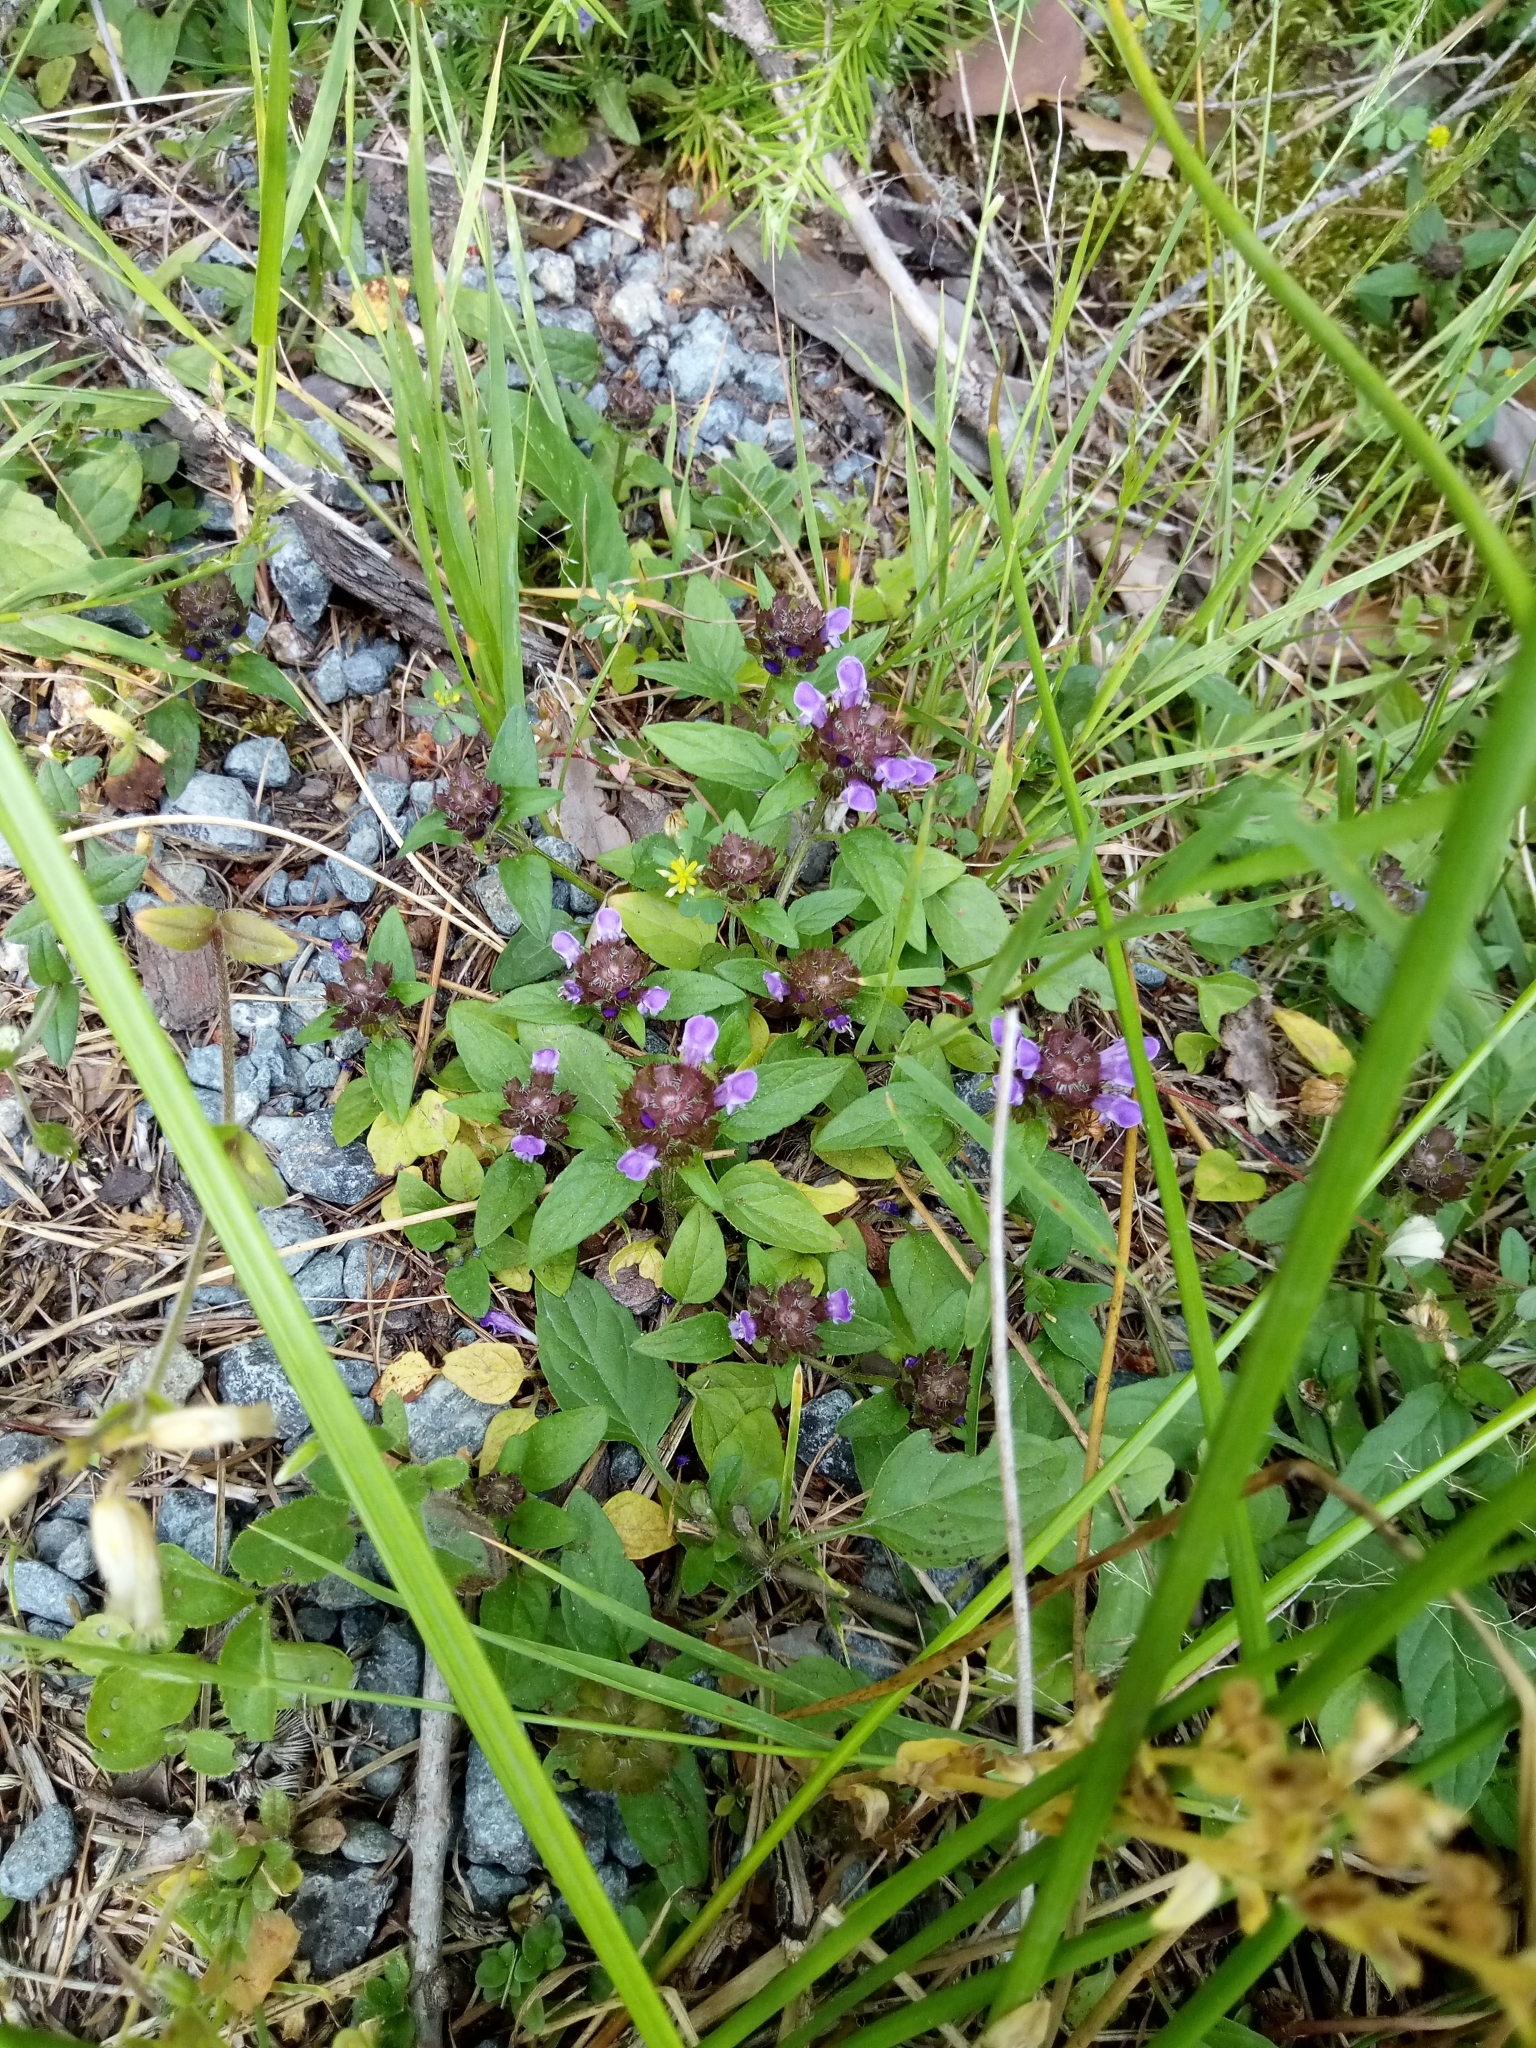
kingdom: Plantae
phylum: Tracheophyta
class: Magnoliopsida
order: Lamiales
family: Lamiaceae
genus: Prunella
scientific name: Prunella vulgaris
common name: Heal-all
